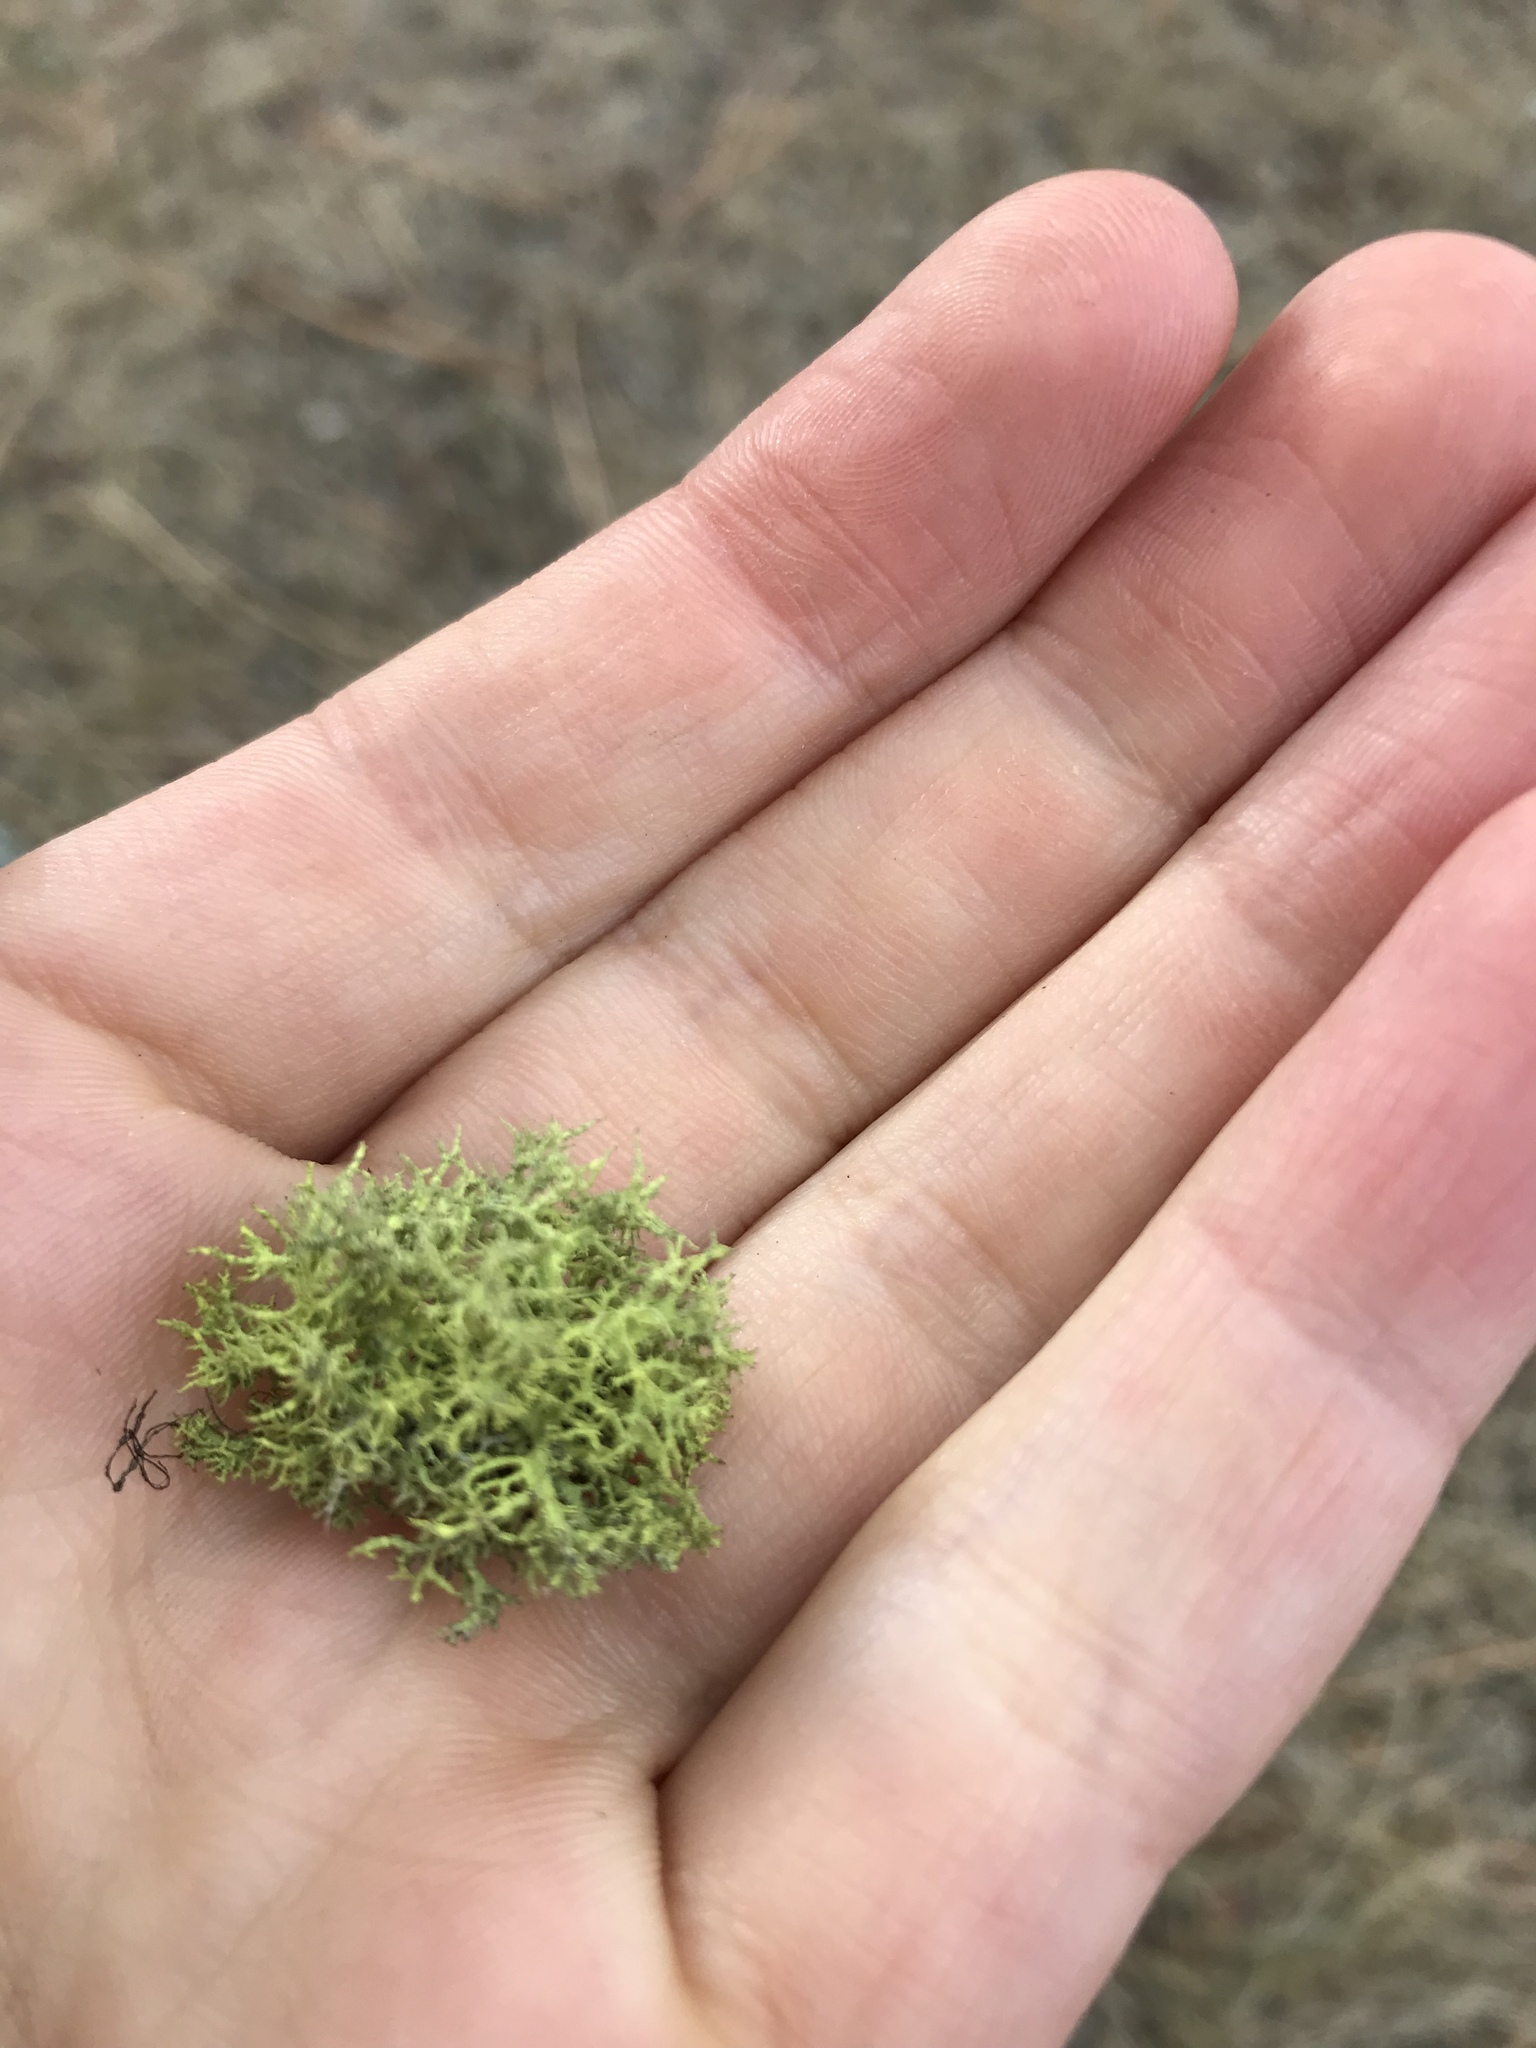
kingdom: Fungi
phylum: Ascomycota
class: Lecanoromycetes
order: Lecanorales
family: Parmeliaceae
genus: Letharia
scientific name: Letharia vulpina
